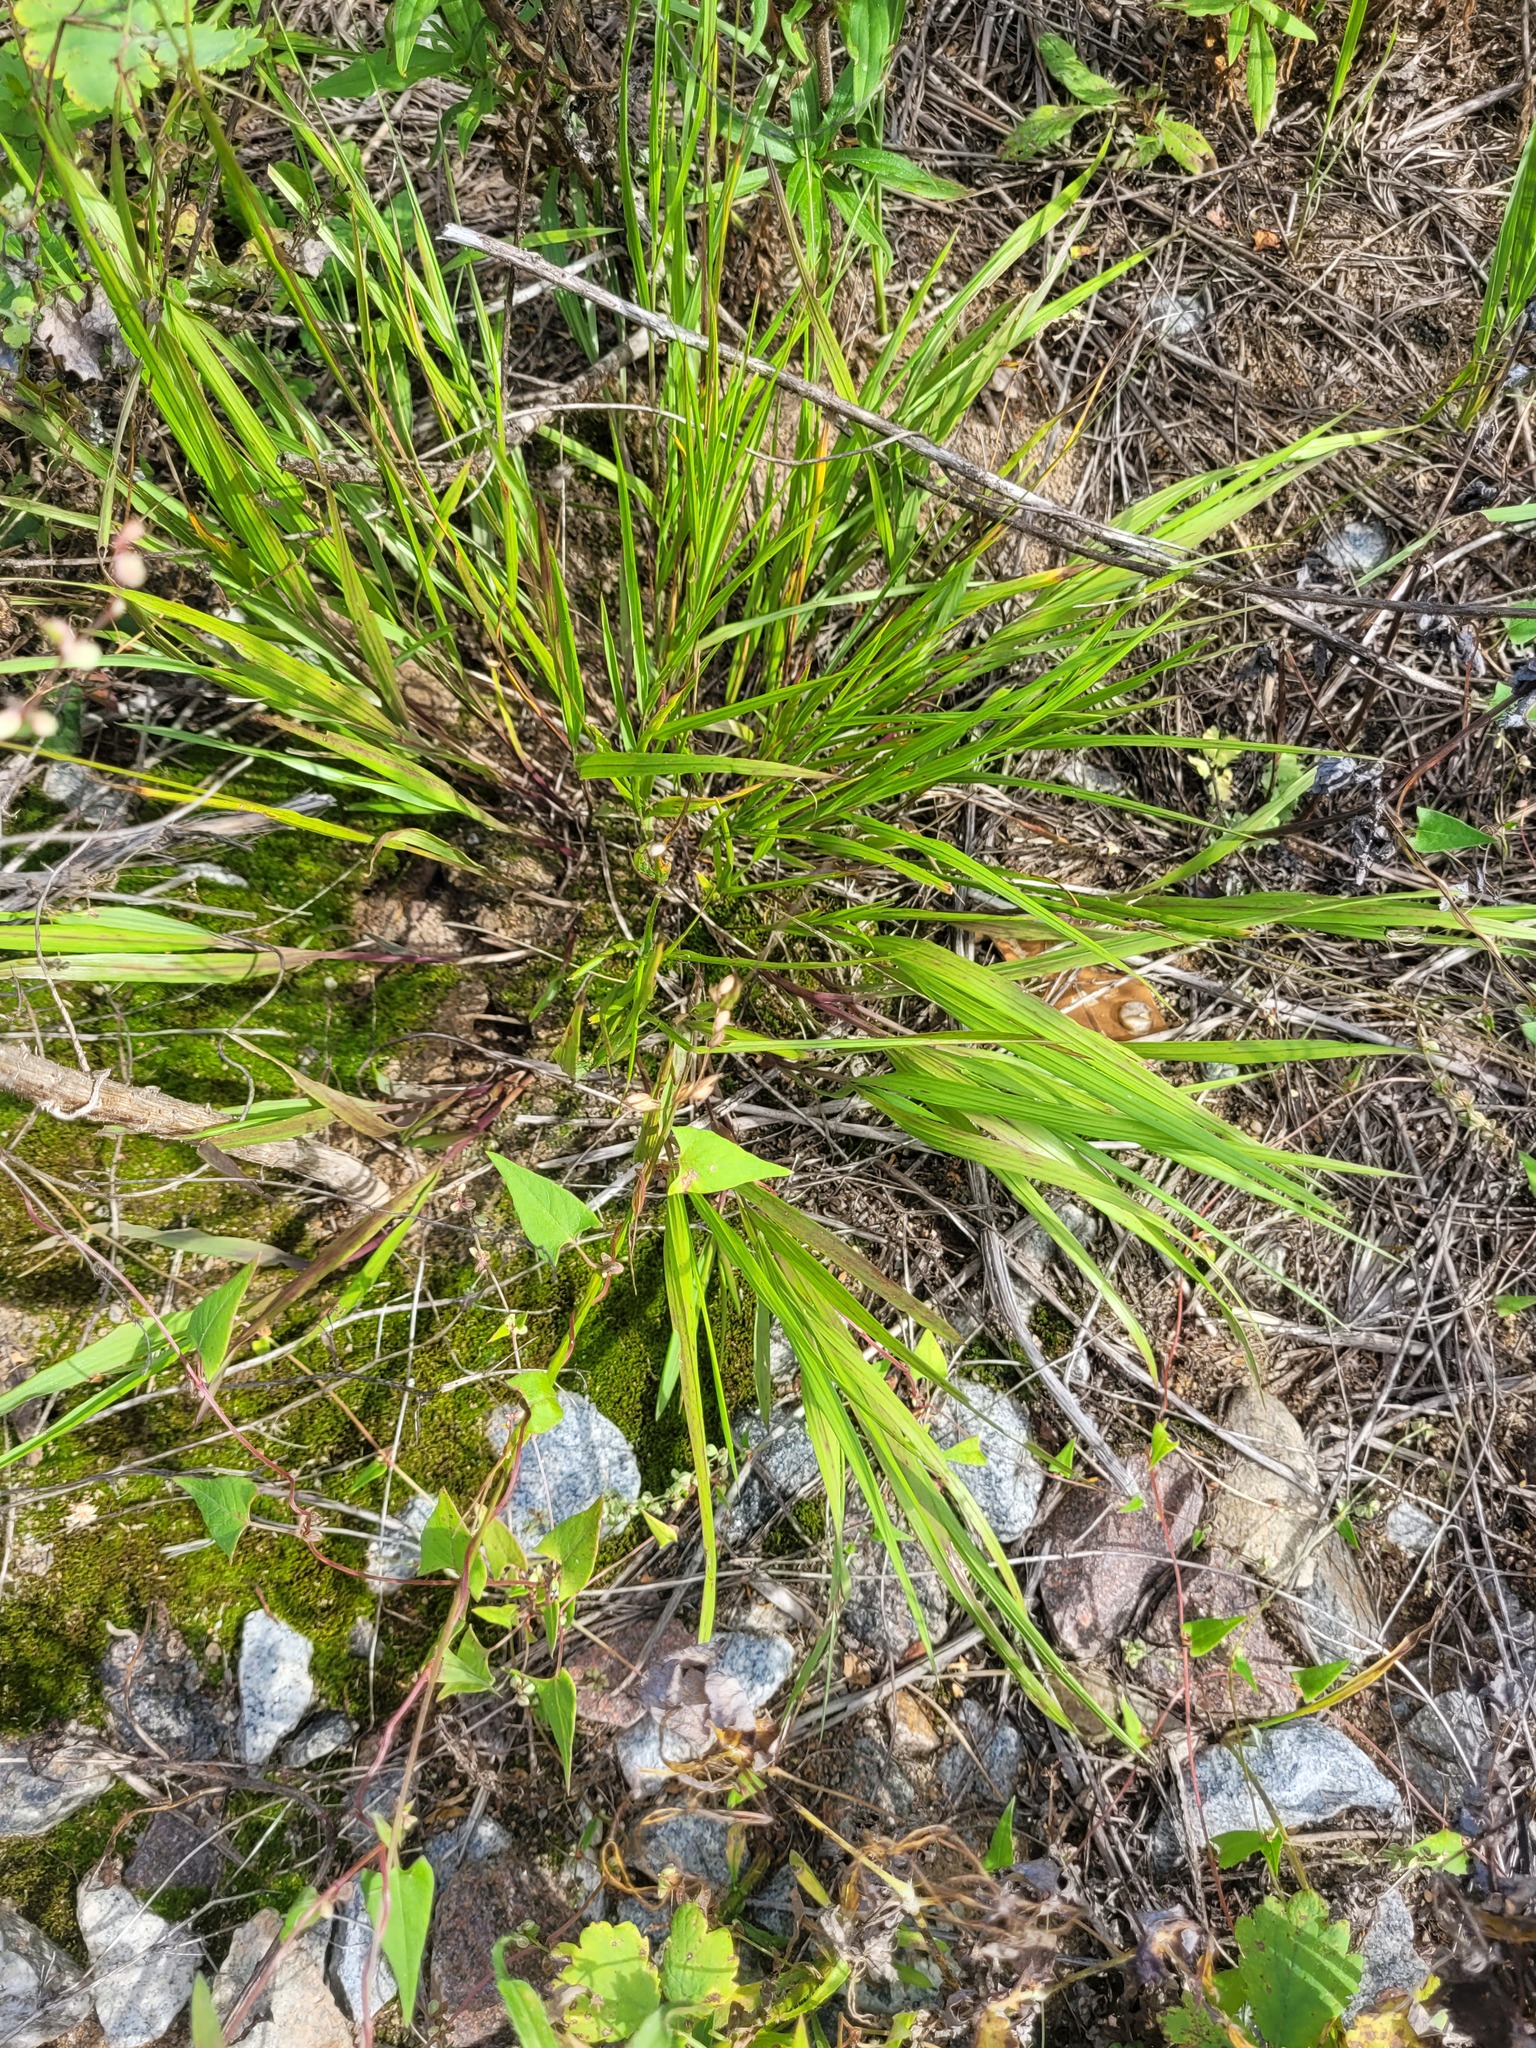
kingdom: Plantae
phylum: Tracheophyta
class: Liliopsida
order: Poales
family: Poaceae
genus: Melica
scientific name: Melica nutans
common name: Mountain melick
